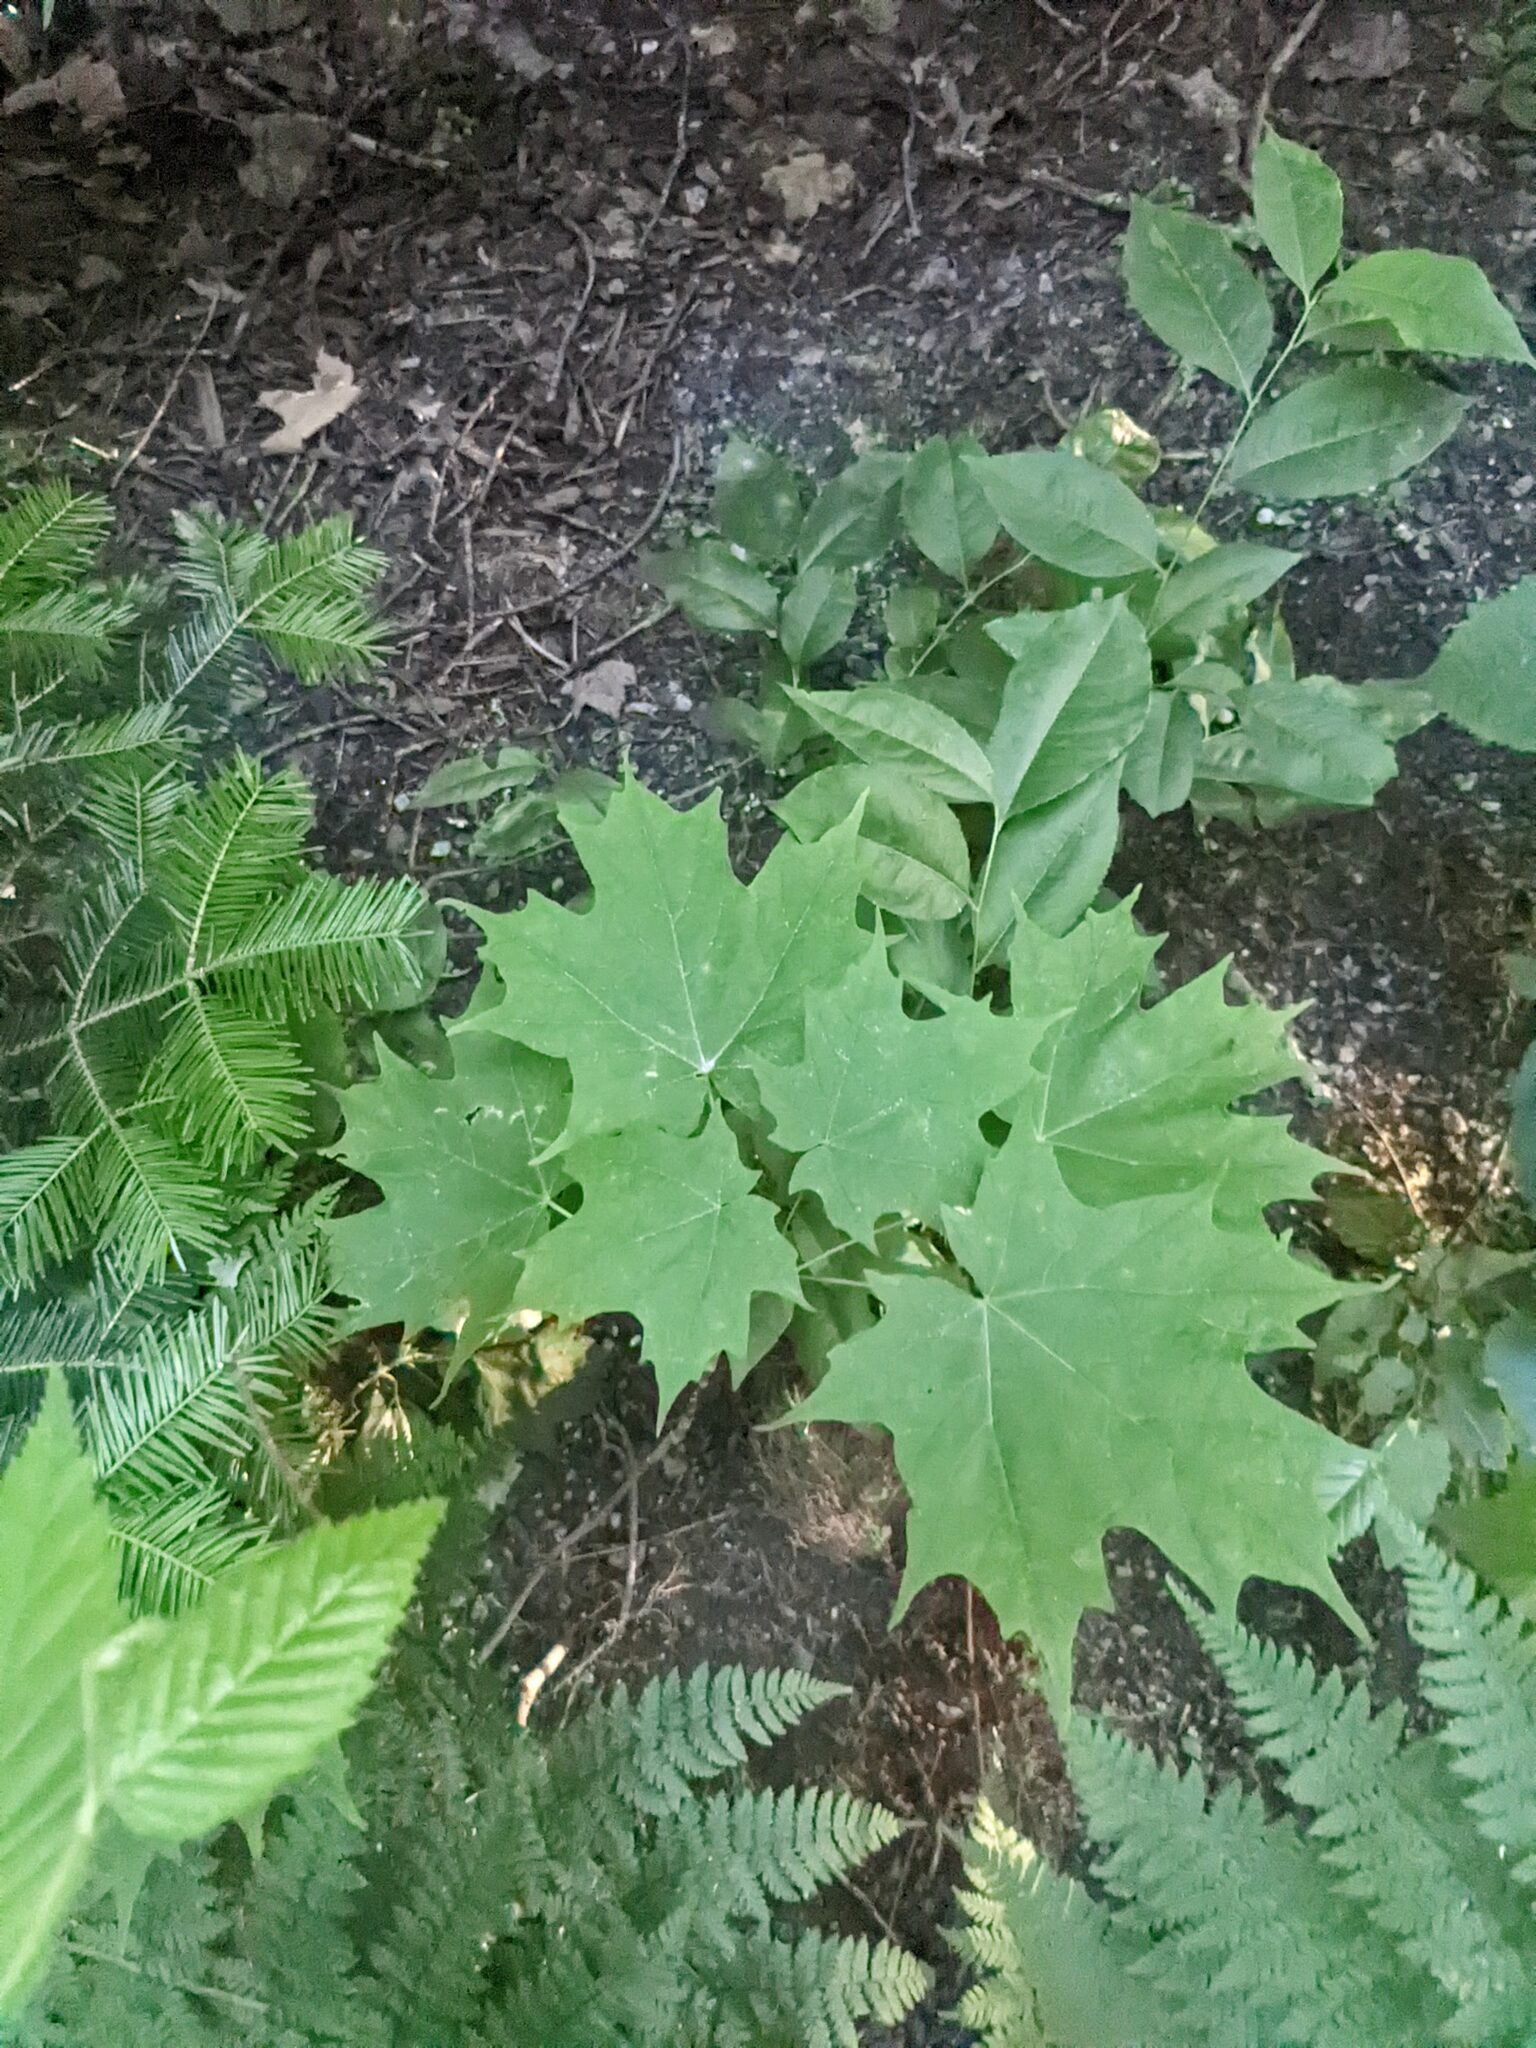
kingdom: Plantae
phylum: Tracheophyta
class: Magnoliopsida
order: Sapindales
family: Sapindaceae
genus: Acer
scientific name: Acer saccharum
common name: Sugar maple
